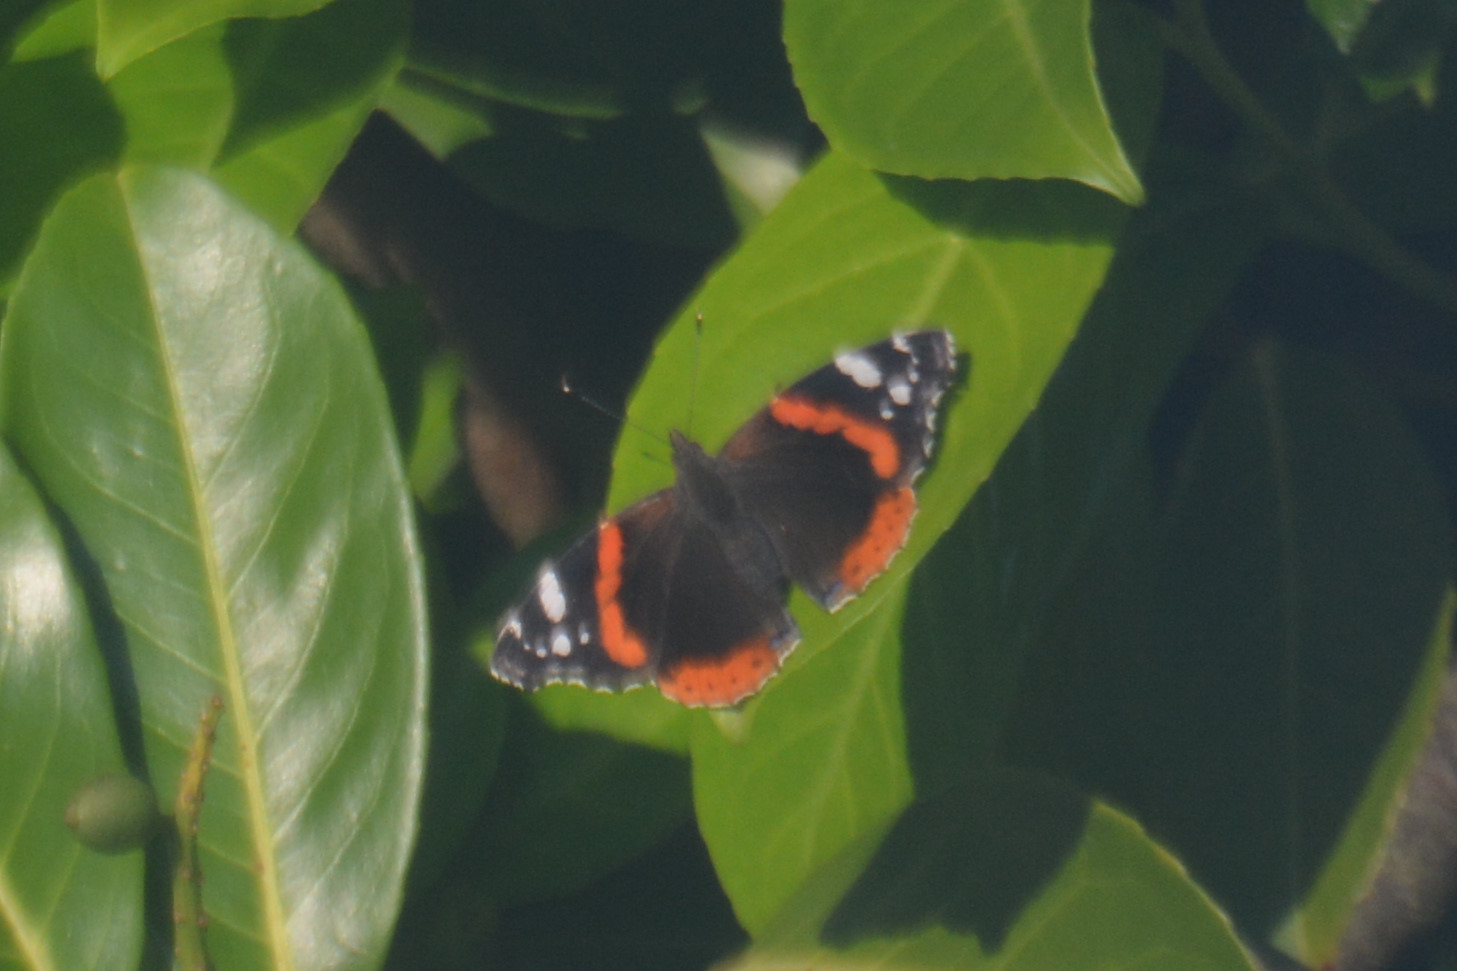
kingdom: Animalia
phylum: Arthropoda
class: Insecta
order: Lepidoptera
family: Nymphalidae
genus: Vanessa
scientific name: Vanessa atalanta
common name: Red admiral
